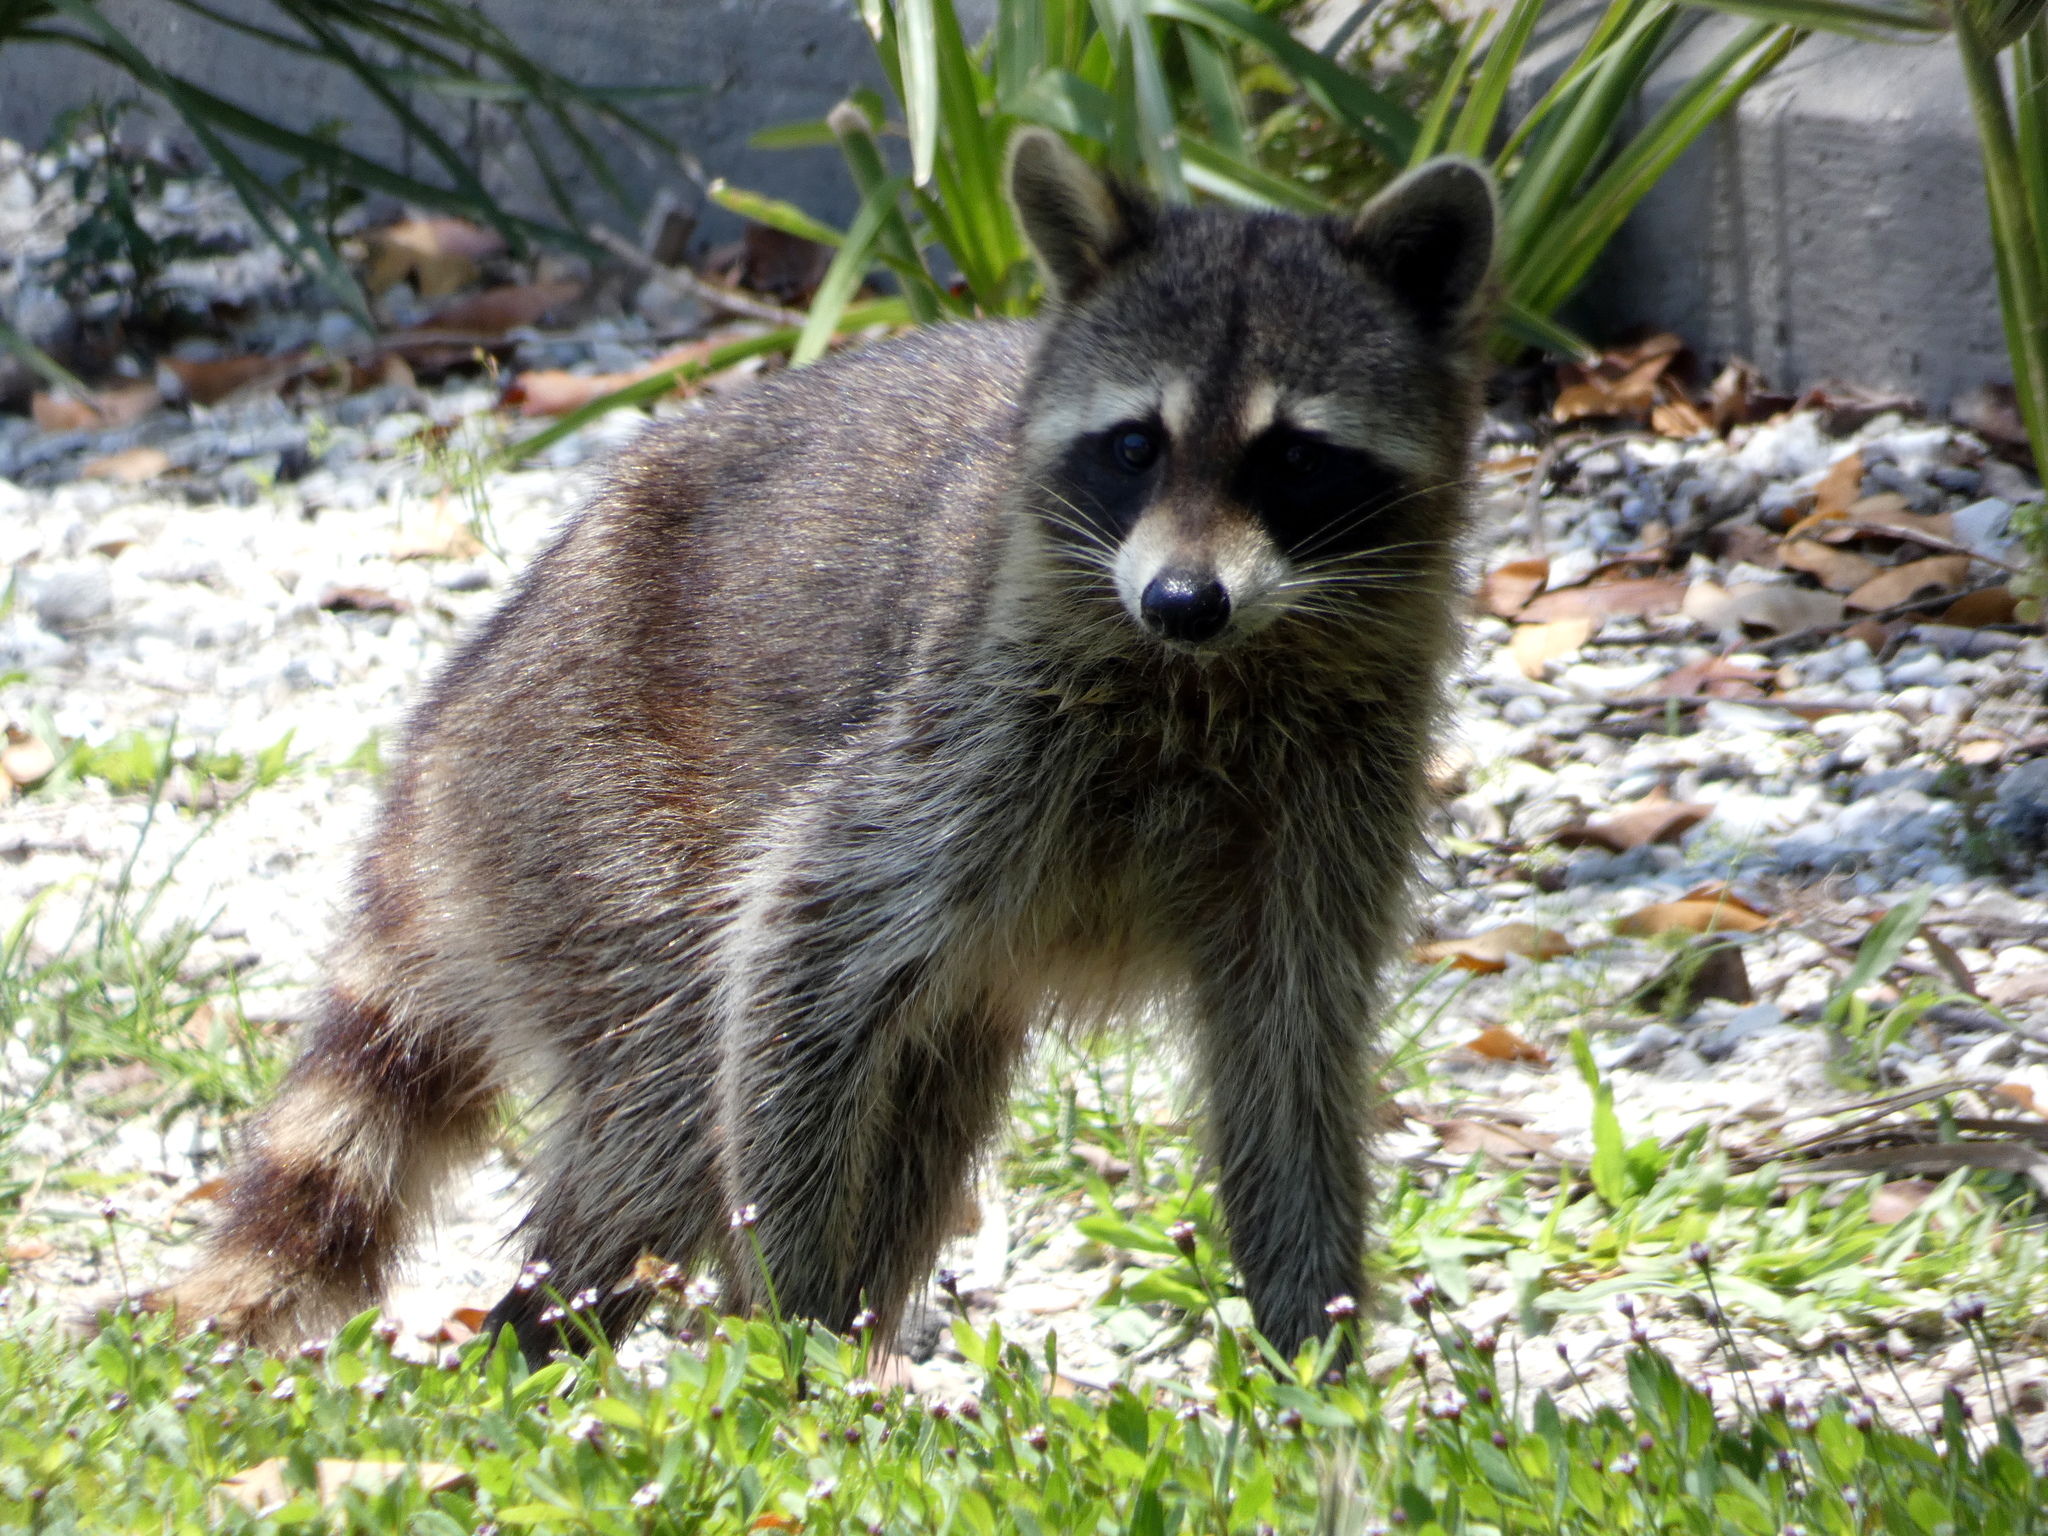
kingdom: Animalia
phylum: Chordata
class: Mammalia
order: Carnivora
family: Procyonidae
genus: Procyon
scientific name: Procyon lotor
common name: Raccoon
